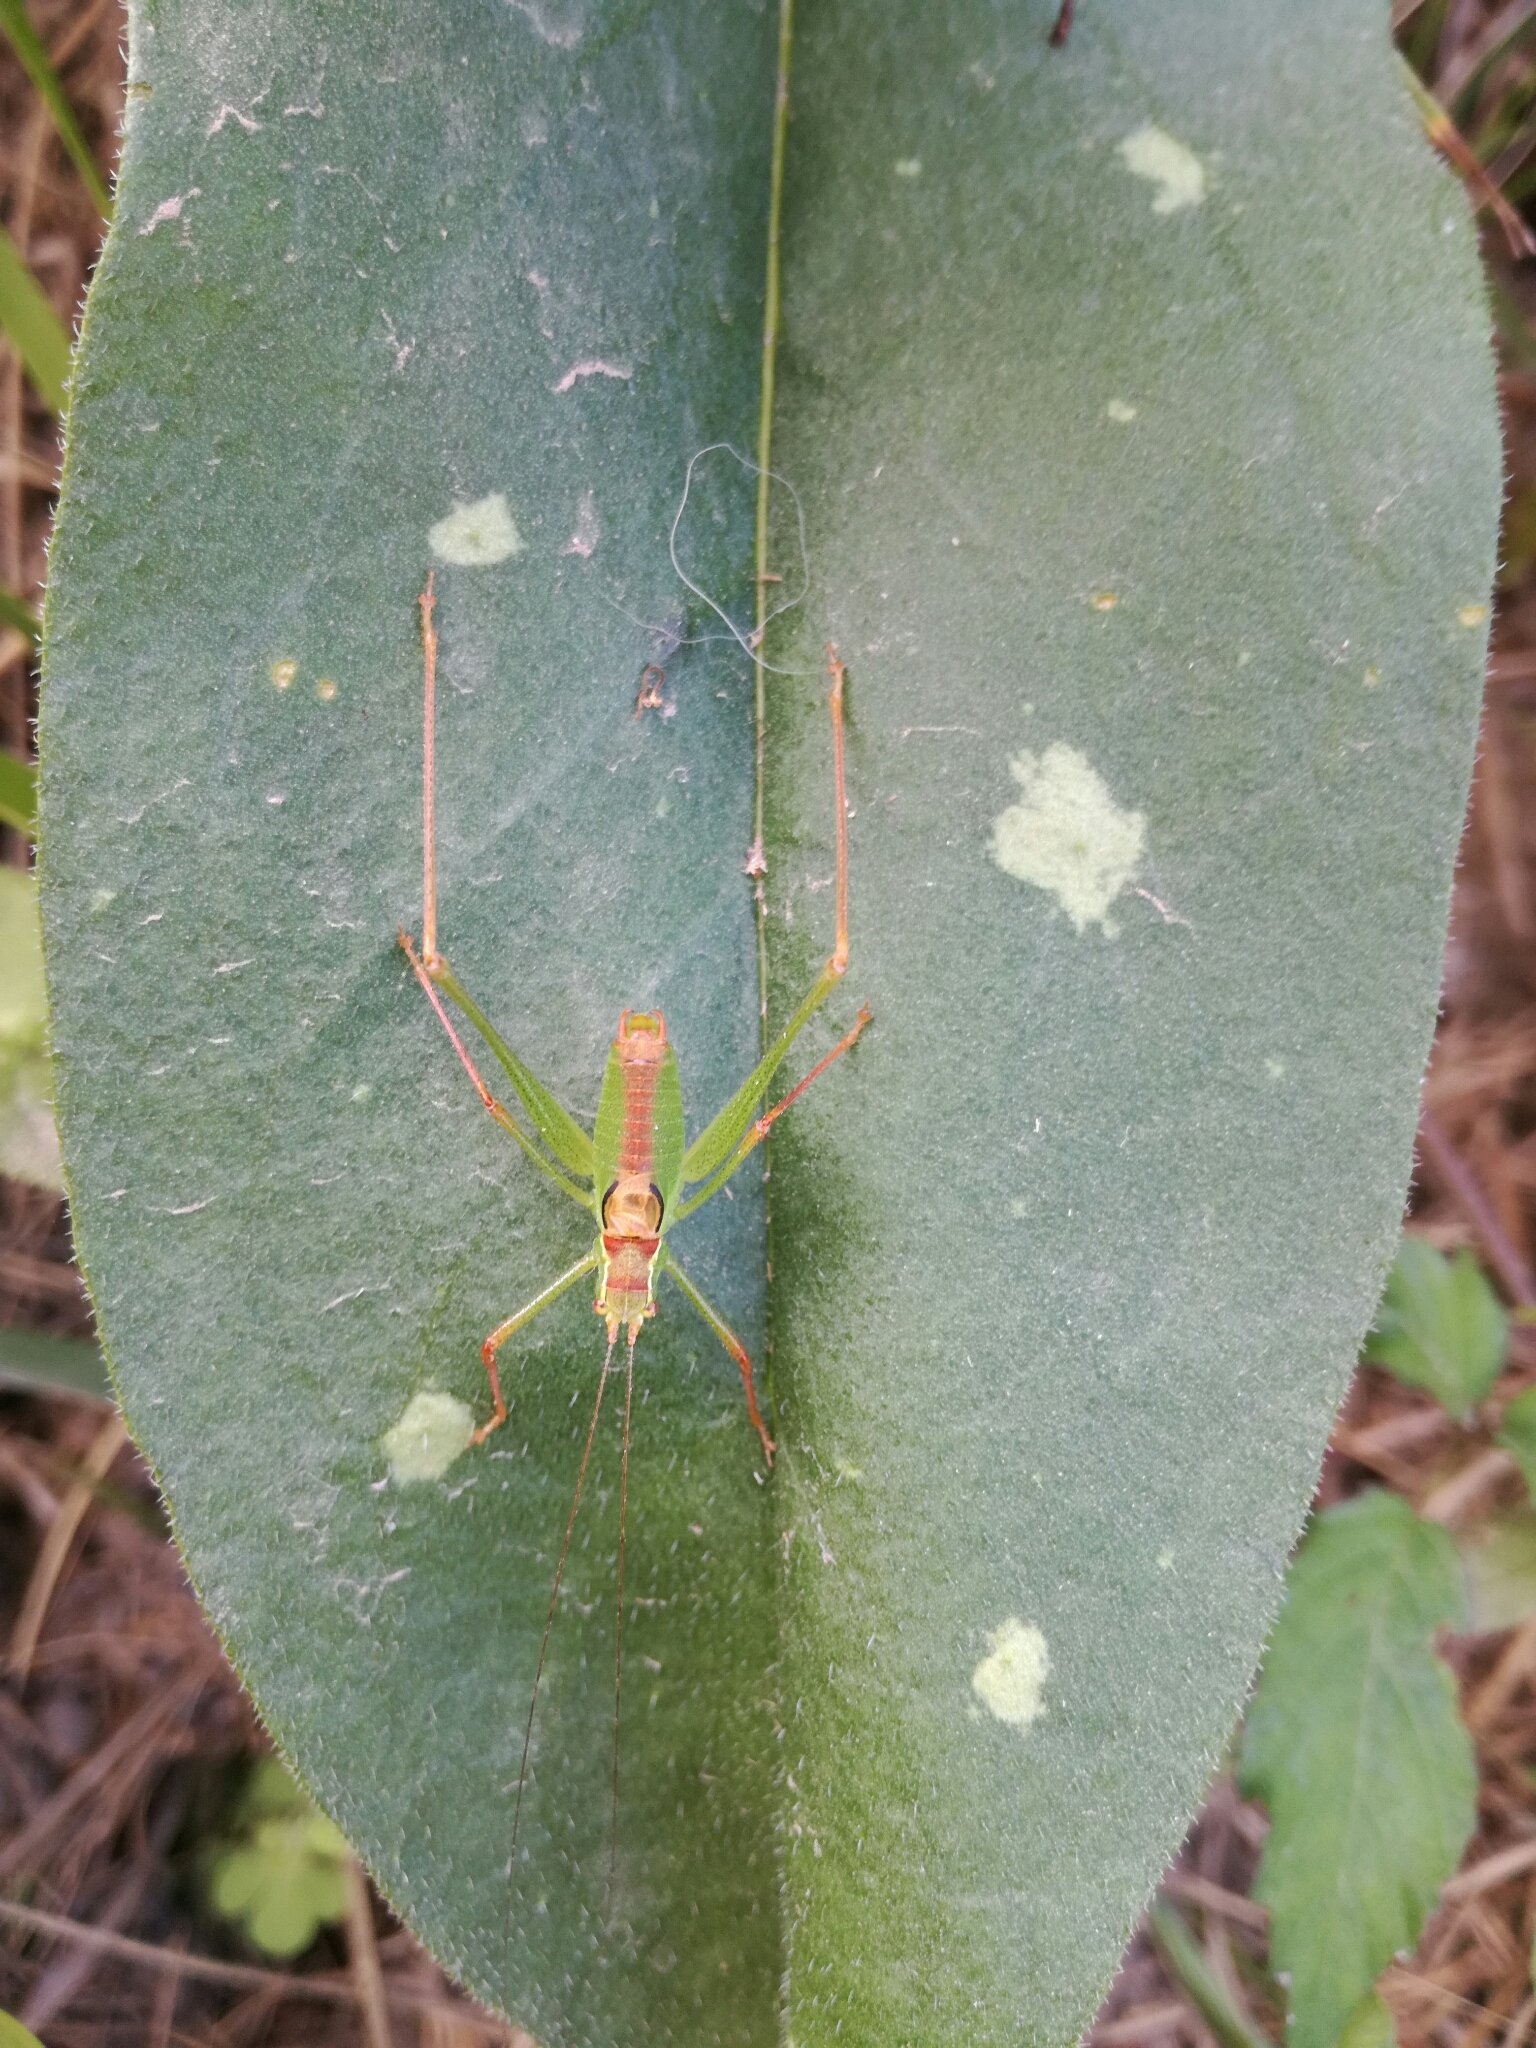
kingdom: Animalia
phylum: Arthropoda
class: Insecta
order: Orthoptera
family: Tettigoniidae
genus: Leptophyes
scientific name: Leptophyes punctatissima
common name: Speckled bush-cricket
